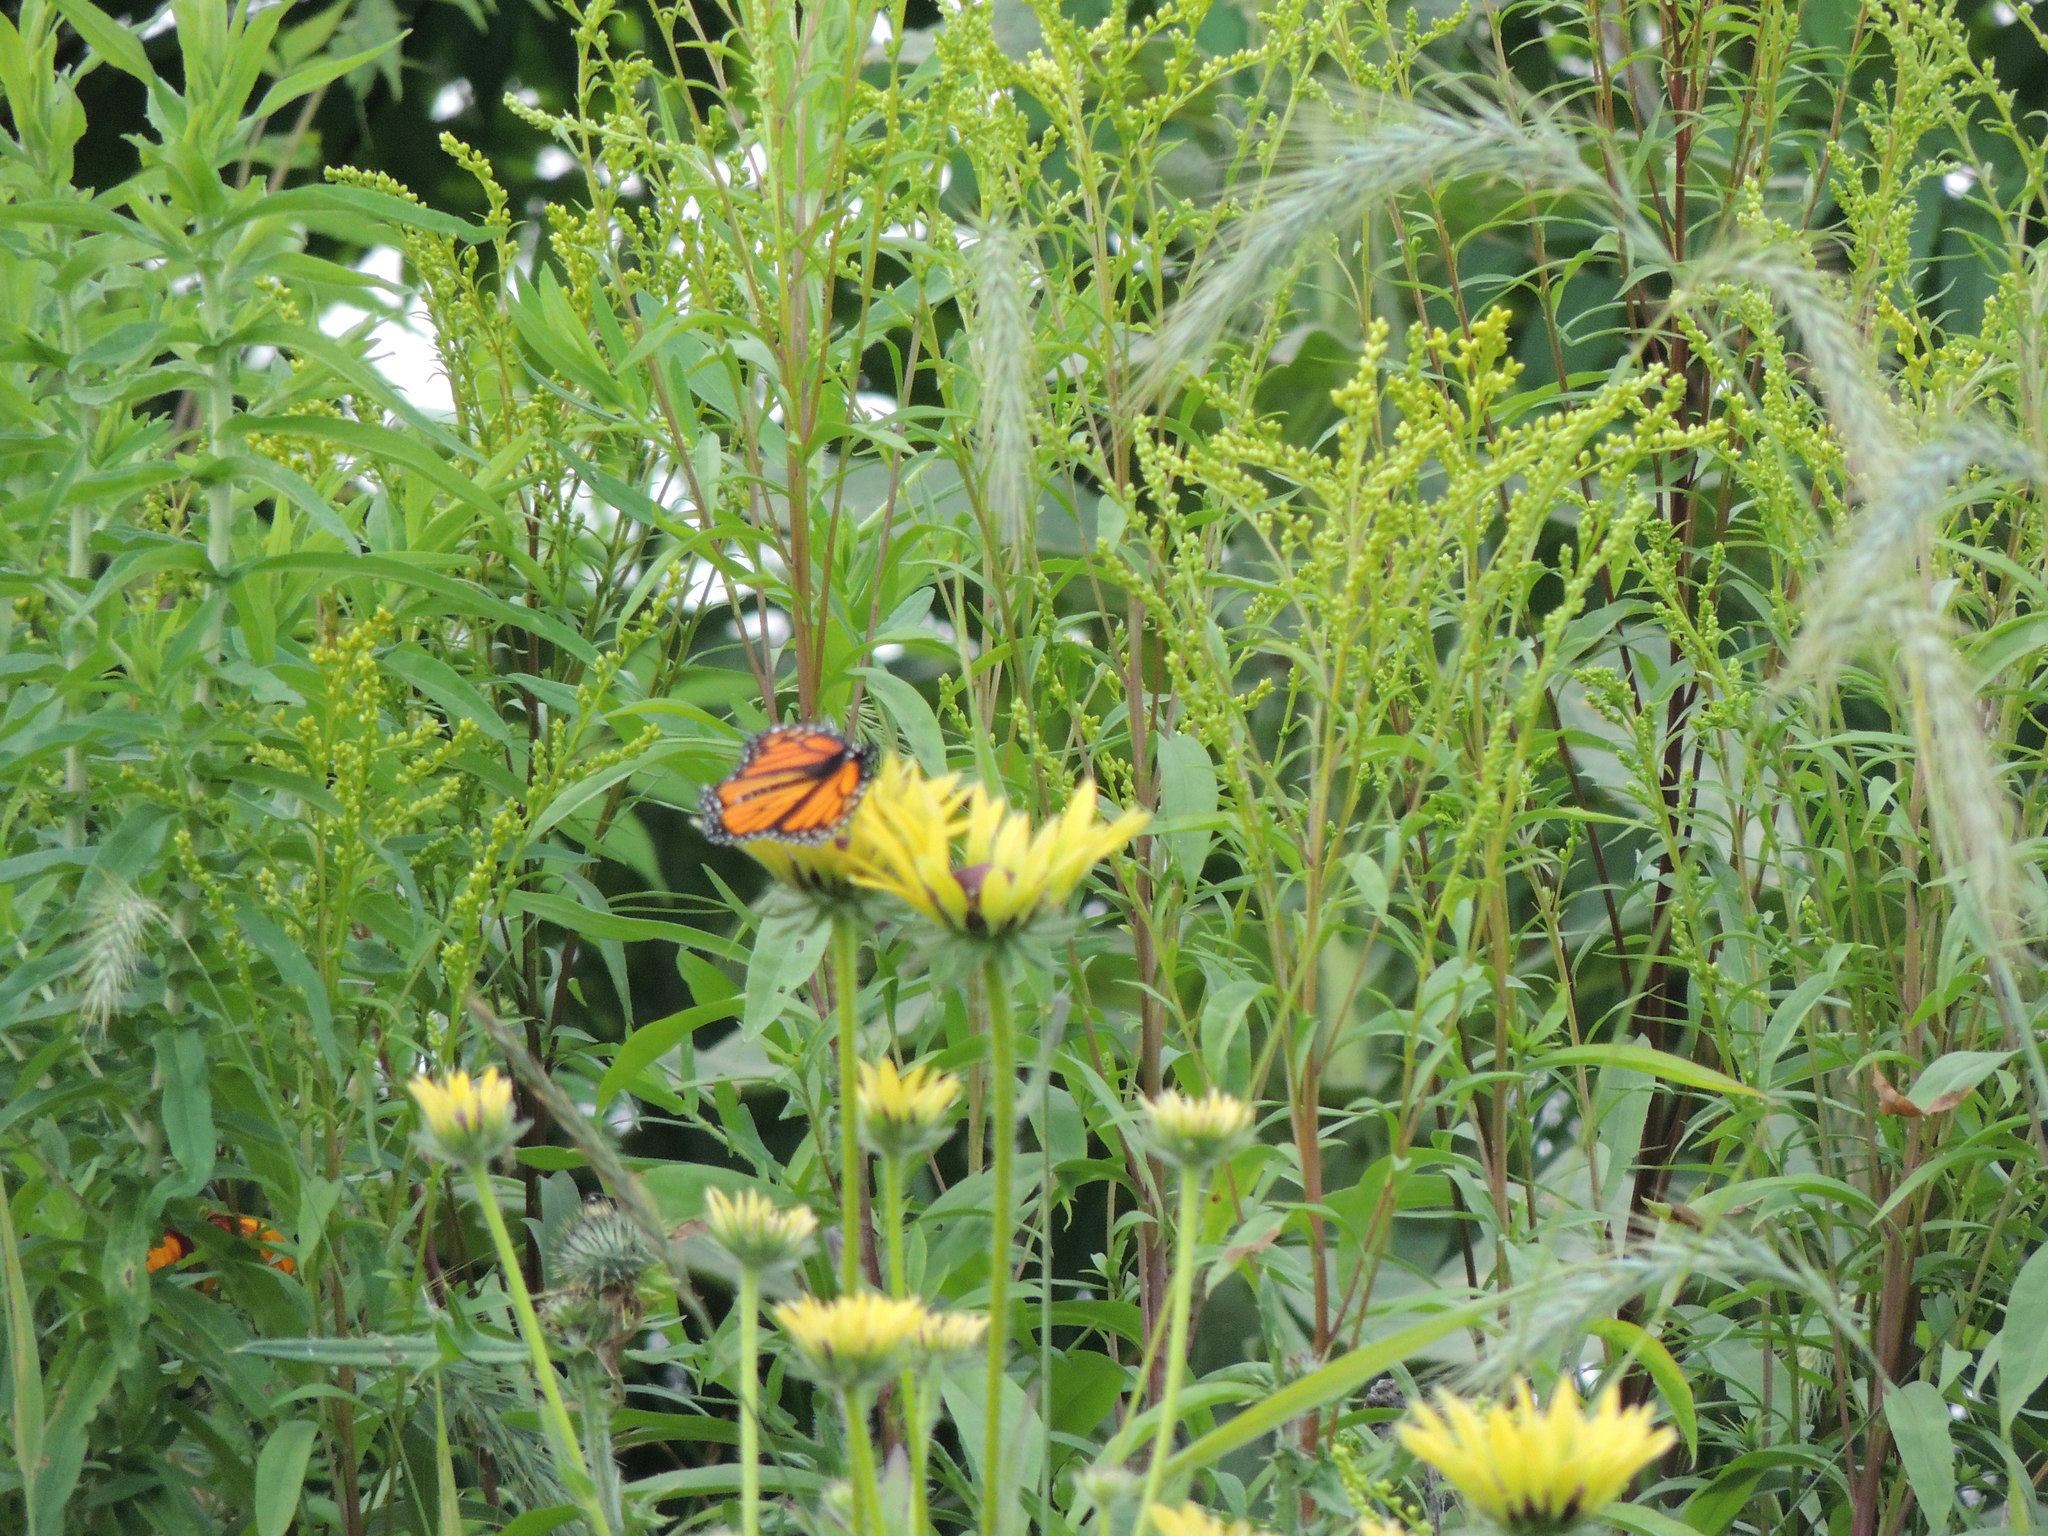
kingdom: Animalia
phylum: Arthropoda
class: Insecta
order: Lepidoptera
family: Nymphalidae
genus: Danaus
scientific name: Danaus plexippus
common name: Monarch
